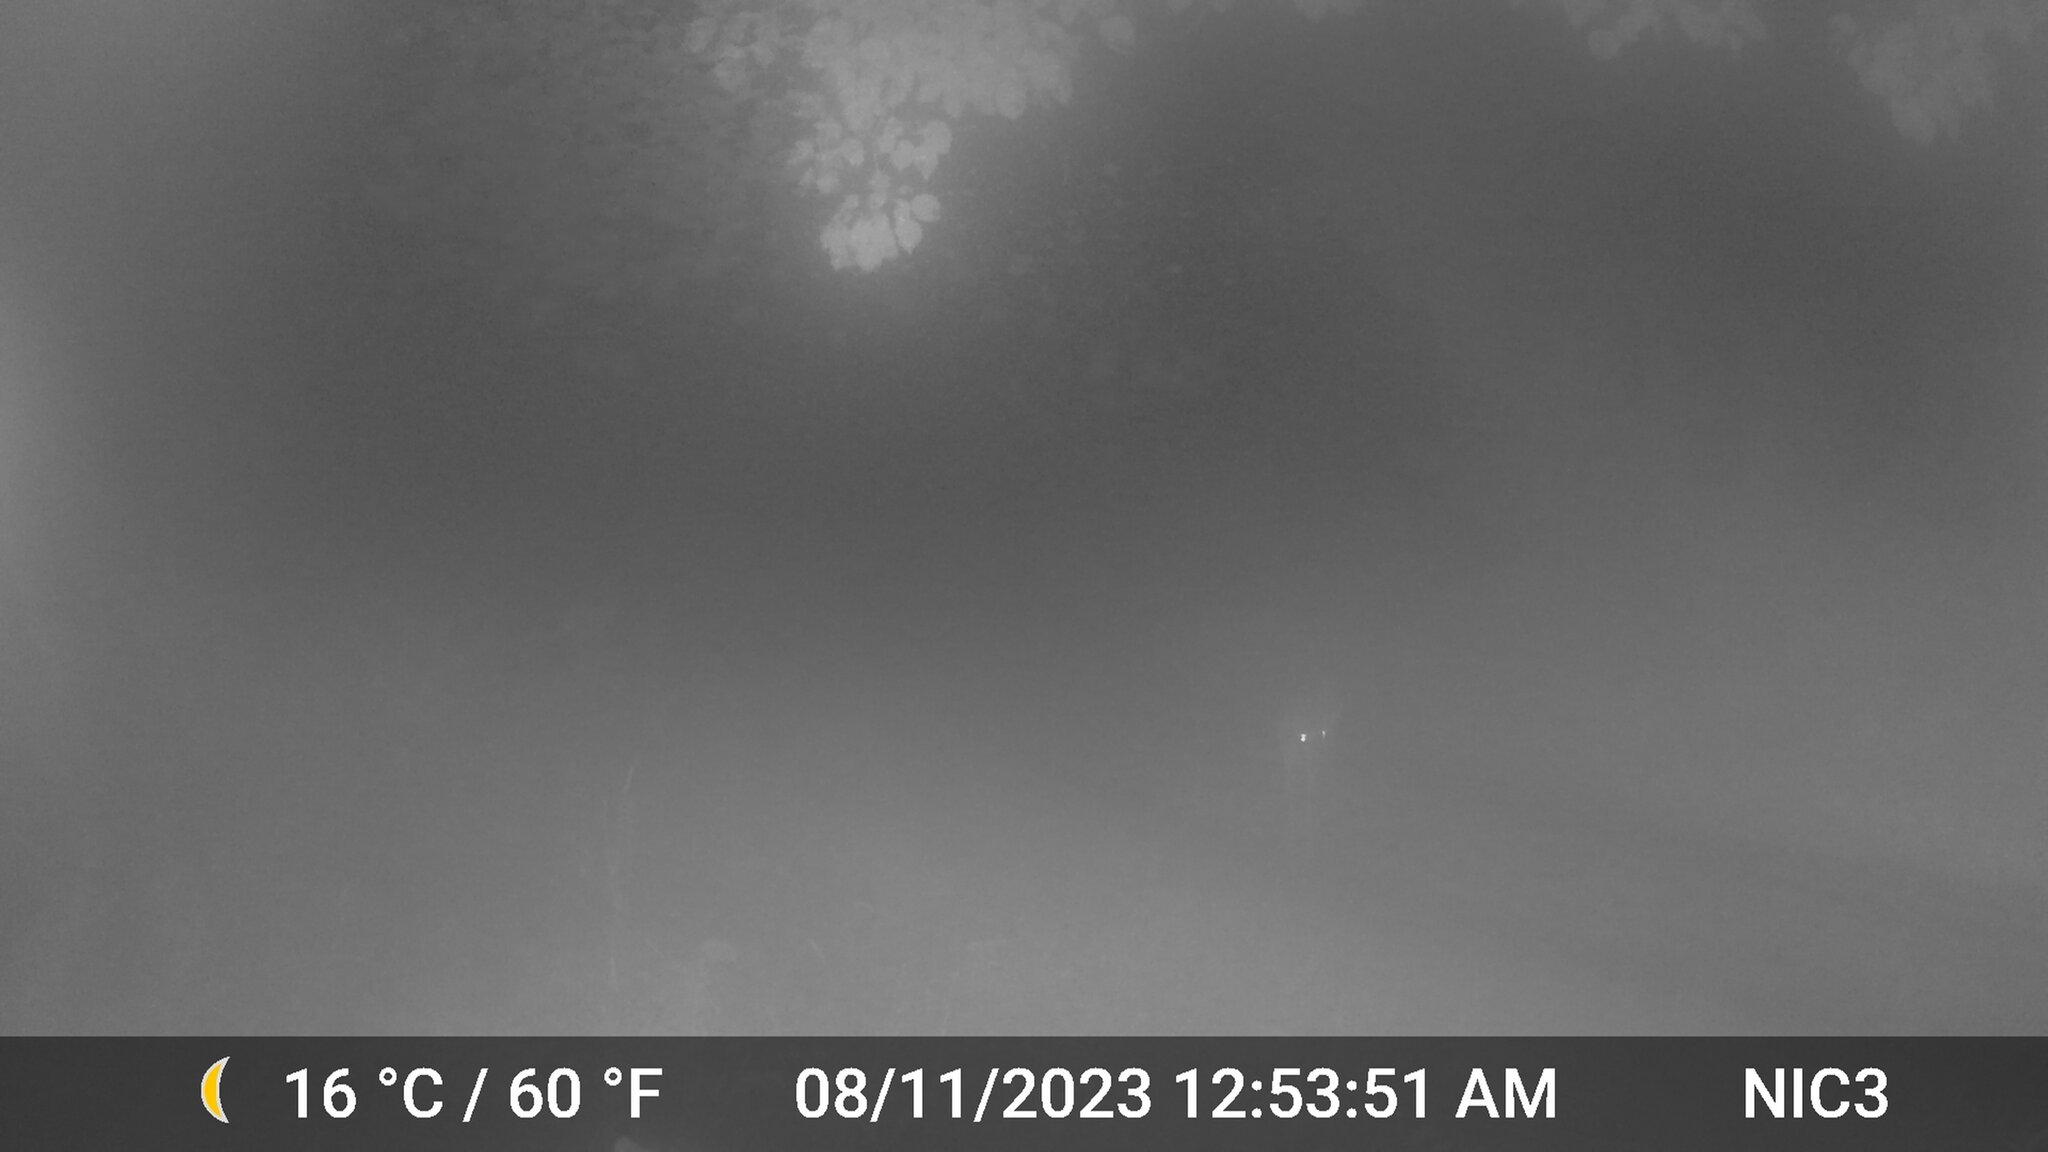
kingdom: Animalia
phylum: Chordata
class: Mammalia
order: Artiodactyla
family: Cervidae
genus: Odocoileus
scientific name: Odocoileus virginianus
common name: White-tailed deer
